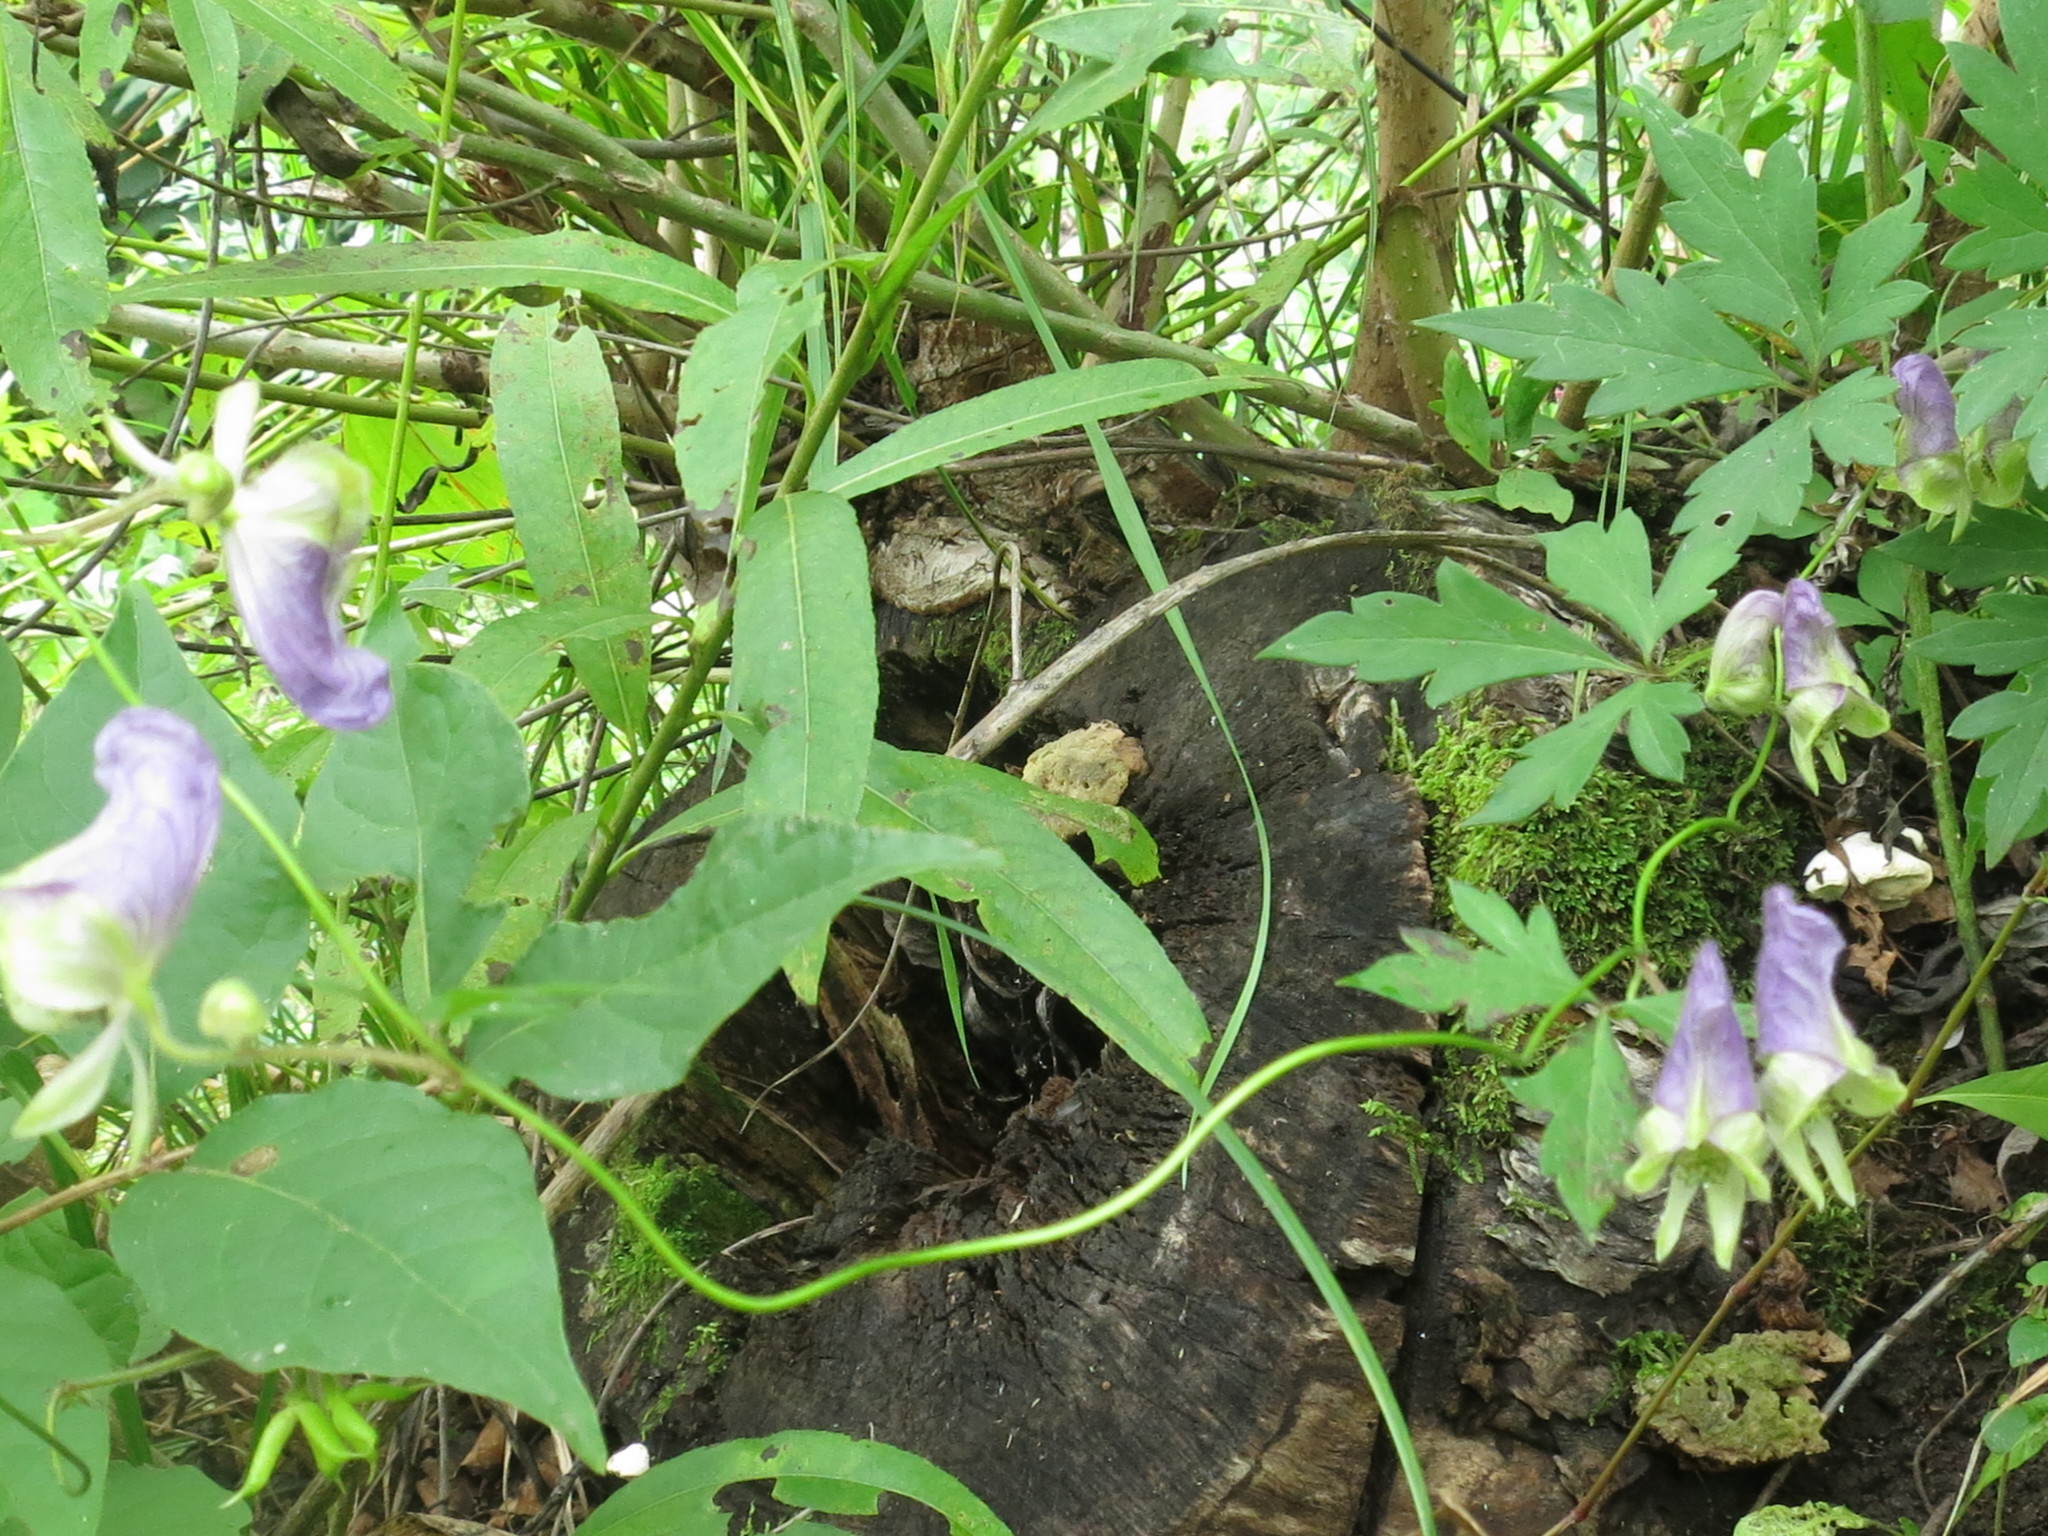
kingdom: Plantae
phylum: Tracheophyta
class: Magnoliopsida
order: Ranunculales
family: Ranunculaceae
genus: Aconitum
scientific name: Aconitum stoloniferum
